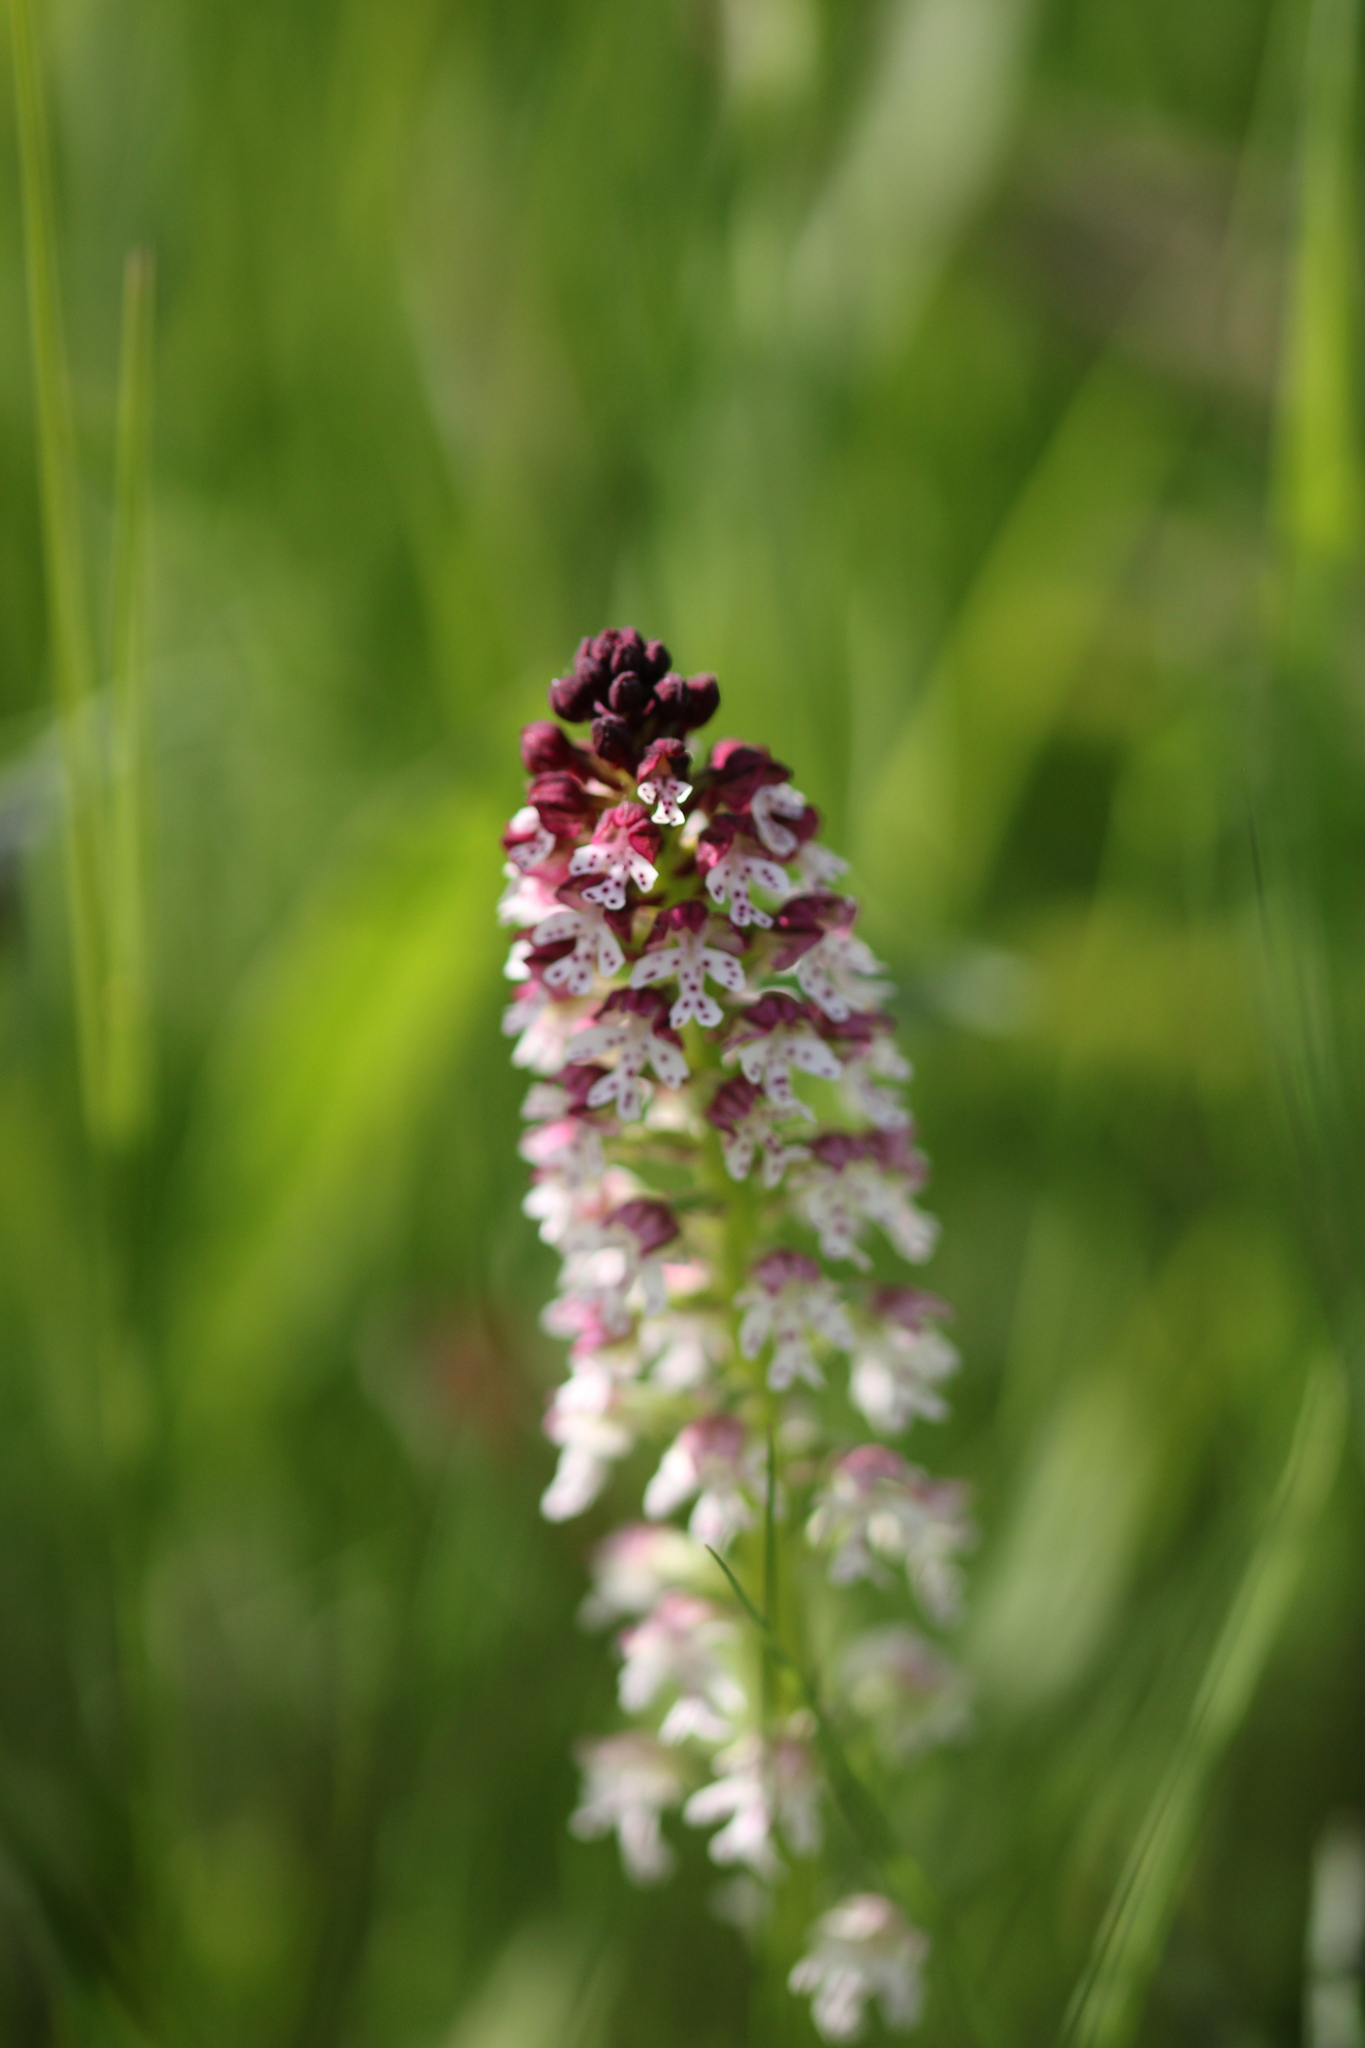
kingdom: Plantae
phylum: Tracheophyta
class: Liliopsida
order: Asparagales
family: Orchidaceae
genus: Neotinea
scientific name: Neotinea ustulata
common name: Burnt orchid
